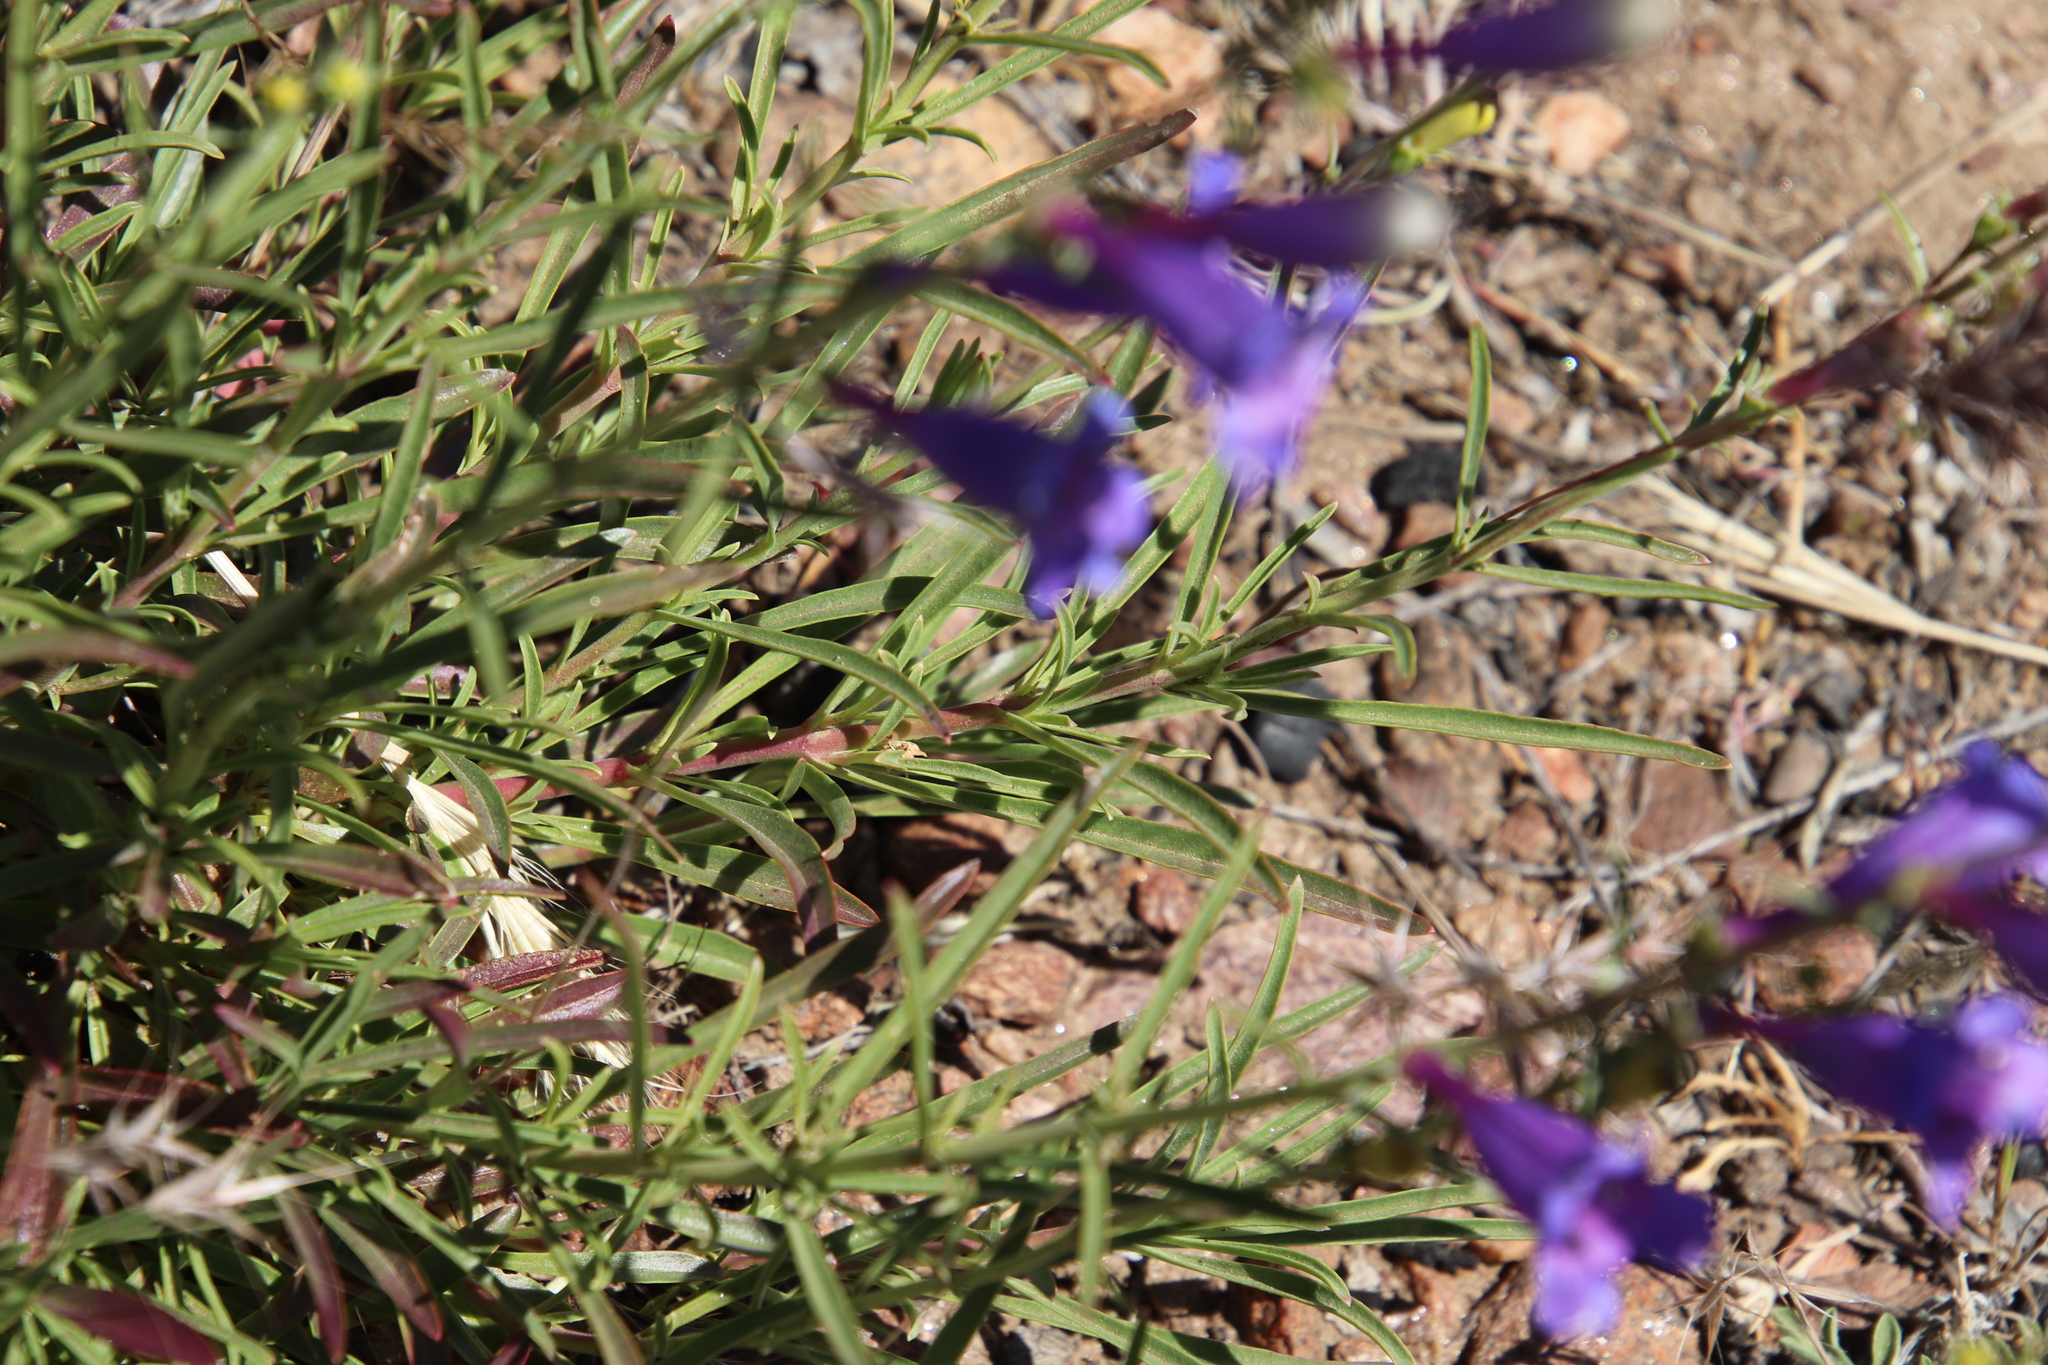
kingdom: Plantae
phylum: Tracheophyta
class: Magnoliopsida
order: Lamiales
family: Plantaginaceae
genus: Penstemon
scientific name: Penstemon heterophyllus
